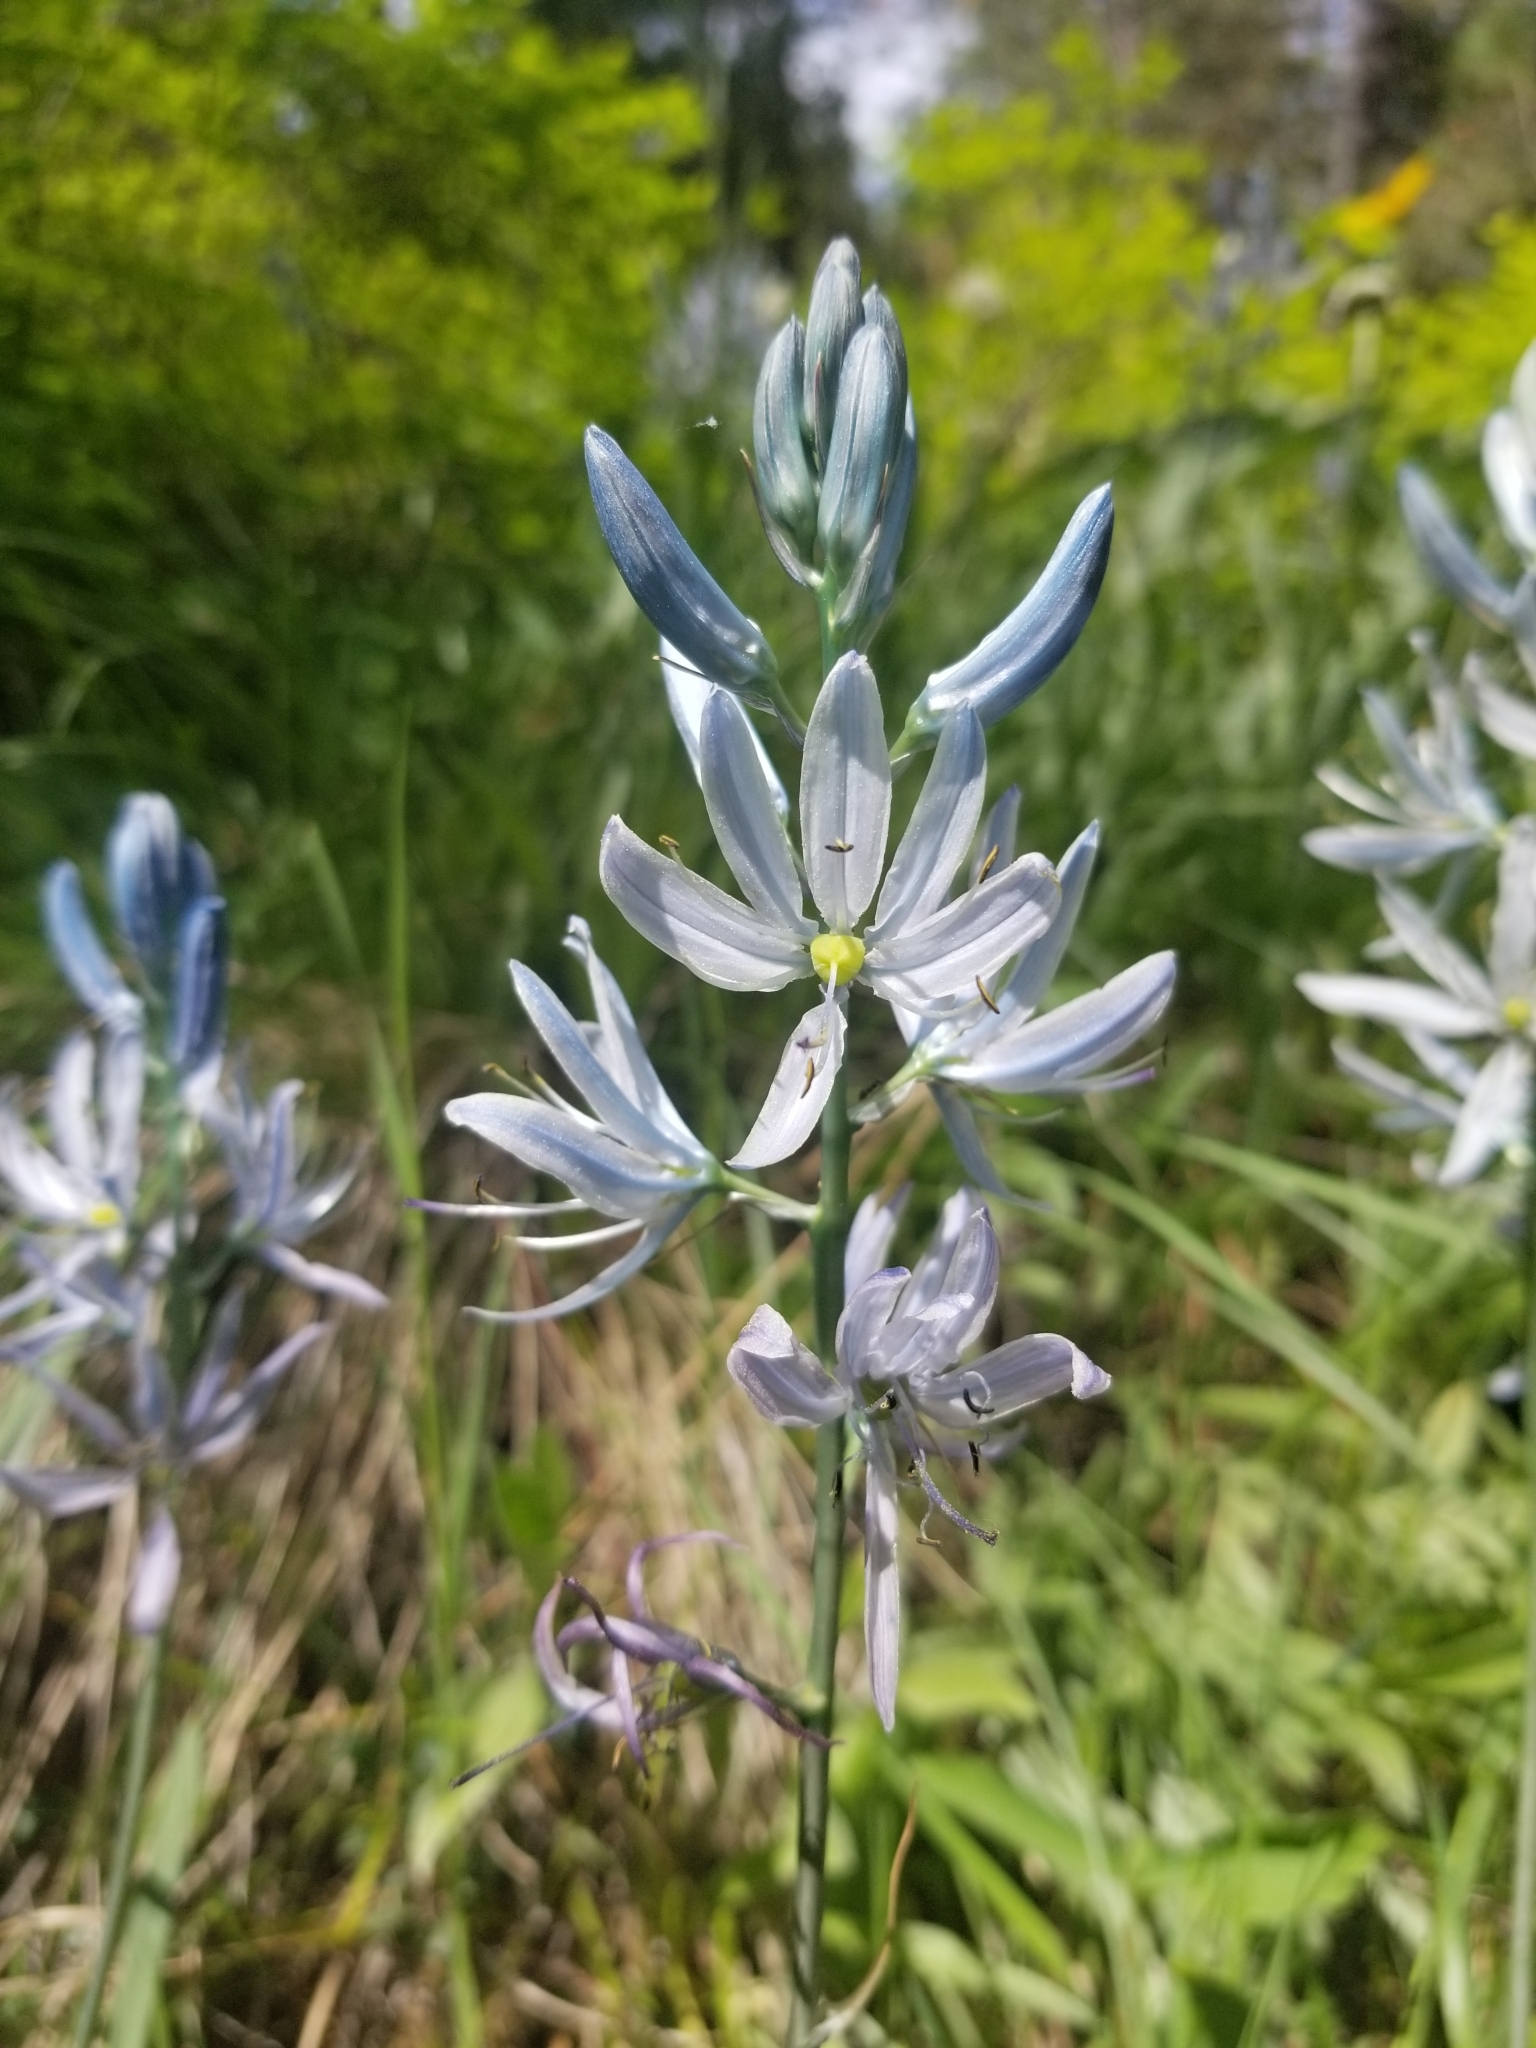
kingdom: Plantae
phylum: Tracheophyta
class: Liliopsida
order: Asparagales
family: Asparagaceae
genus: Camassia
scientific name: Camassia quamash
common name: Common camas
